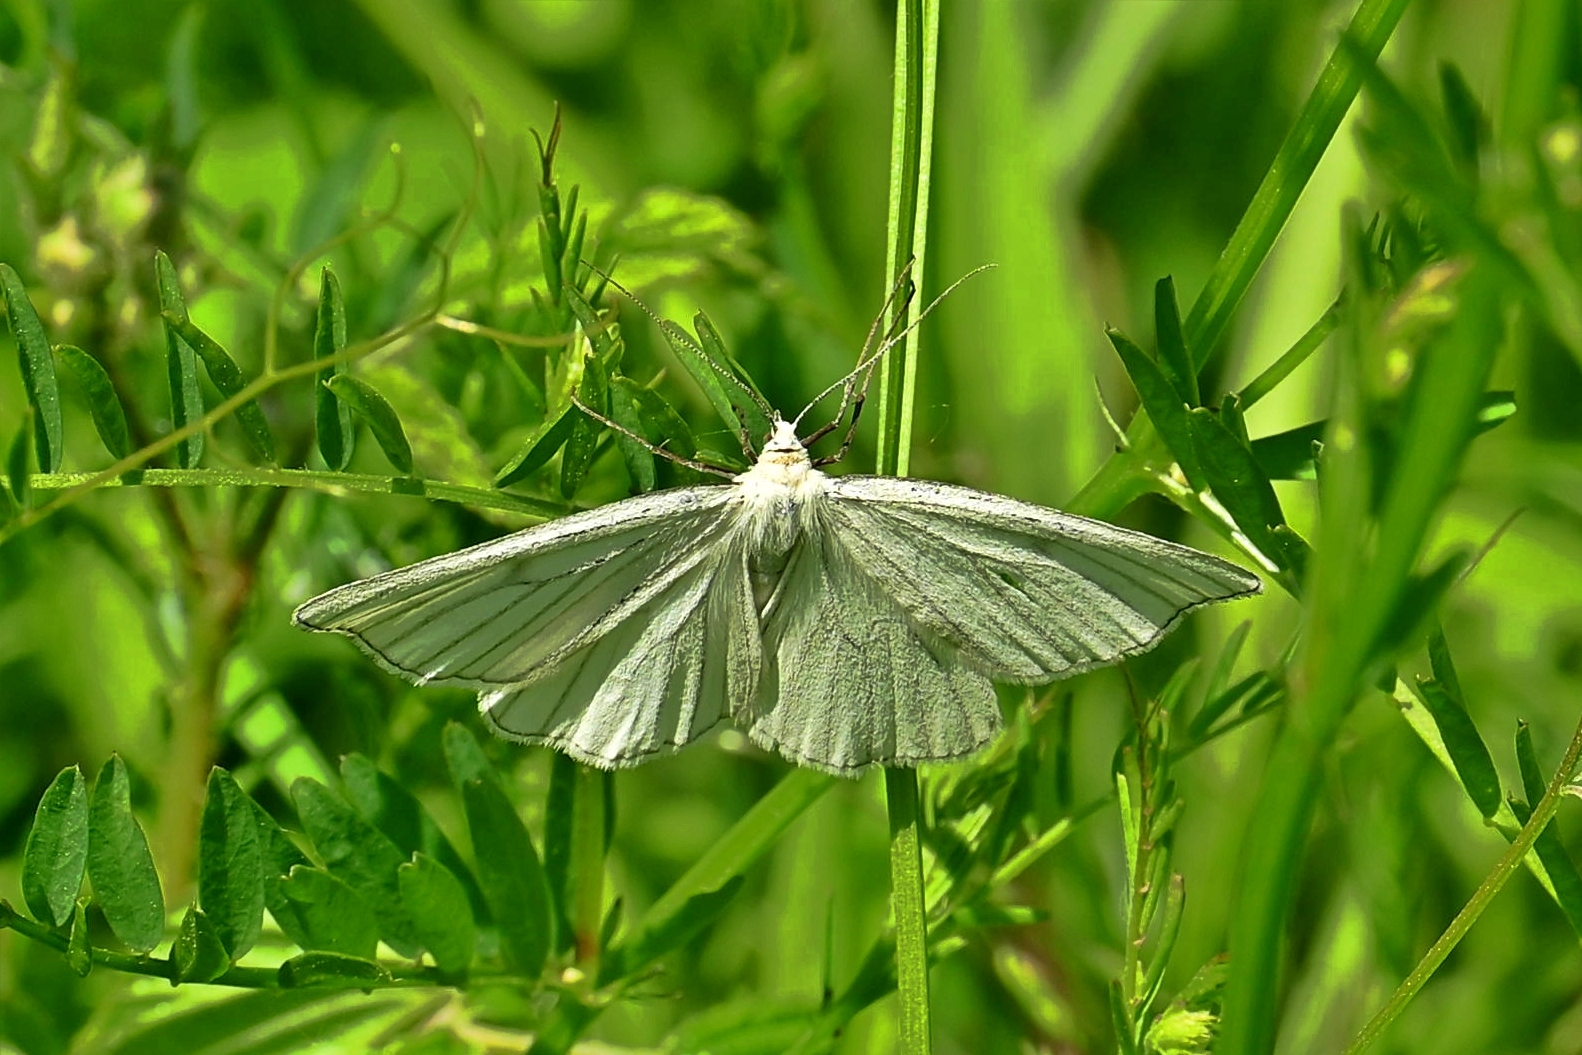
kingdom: Animalia
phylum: Arthropoda
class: Insecta
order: Lepidoptera
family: Geometridae
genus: Siona
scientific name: Siona lineata
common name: Black-veined moth
